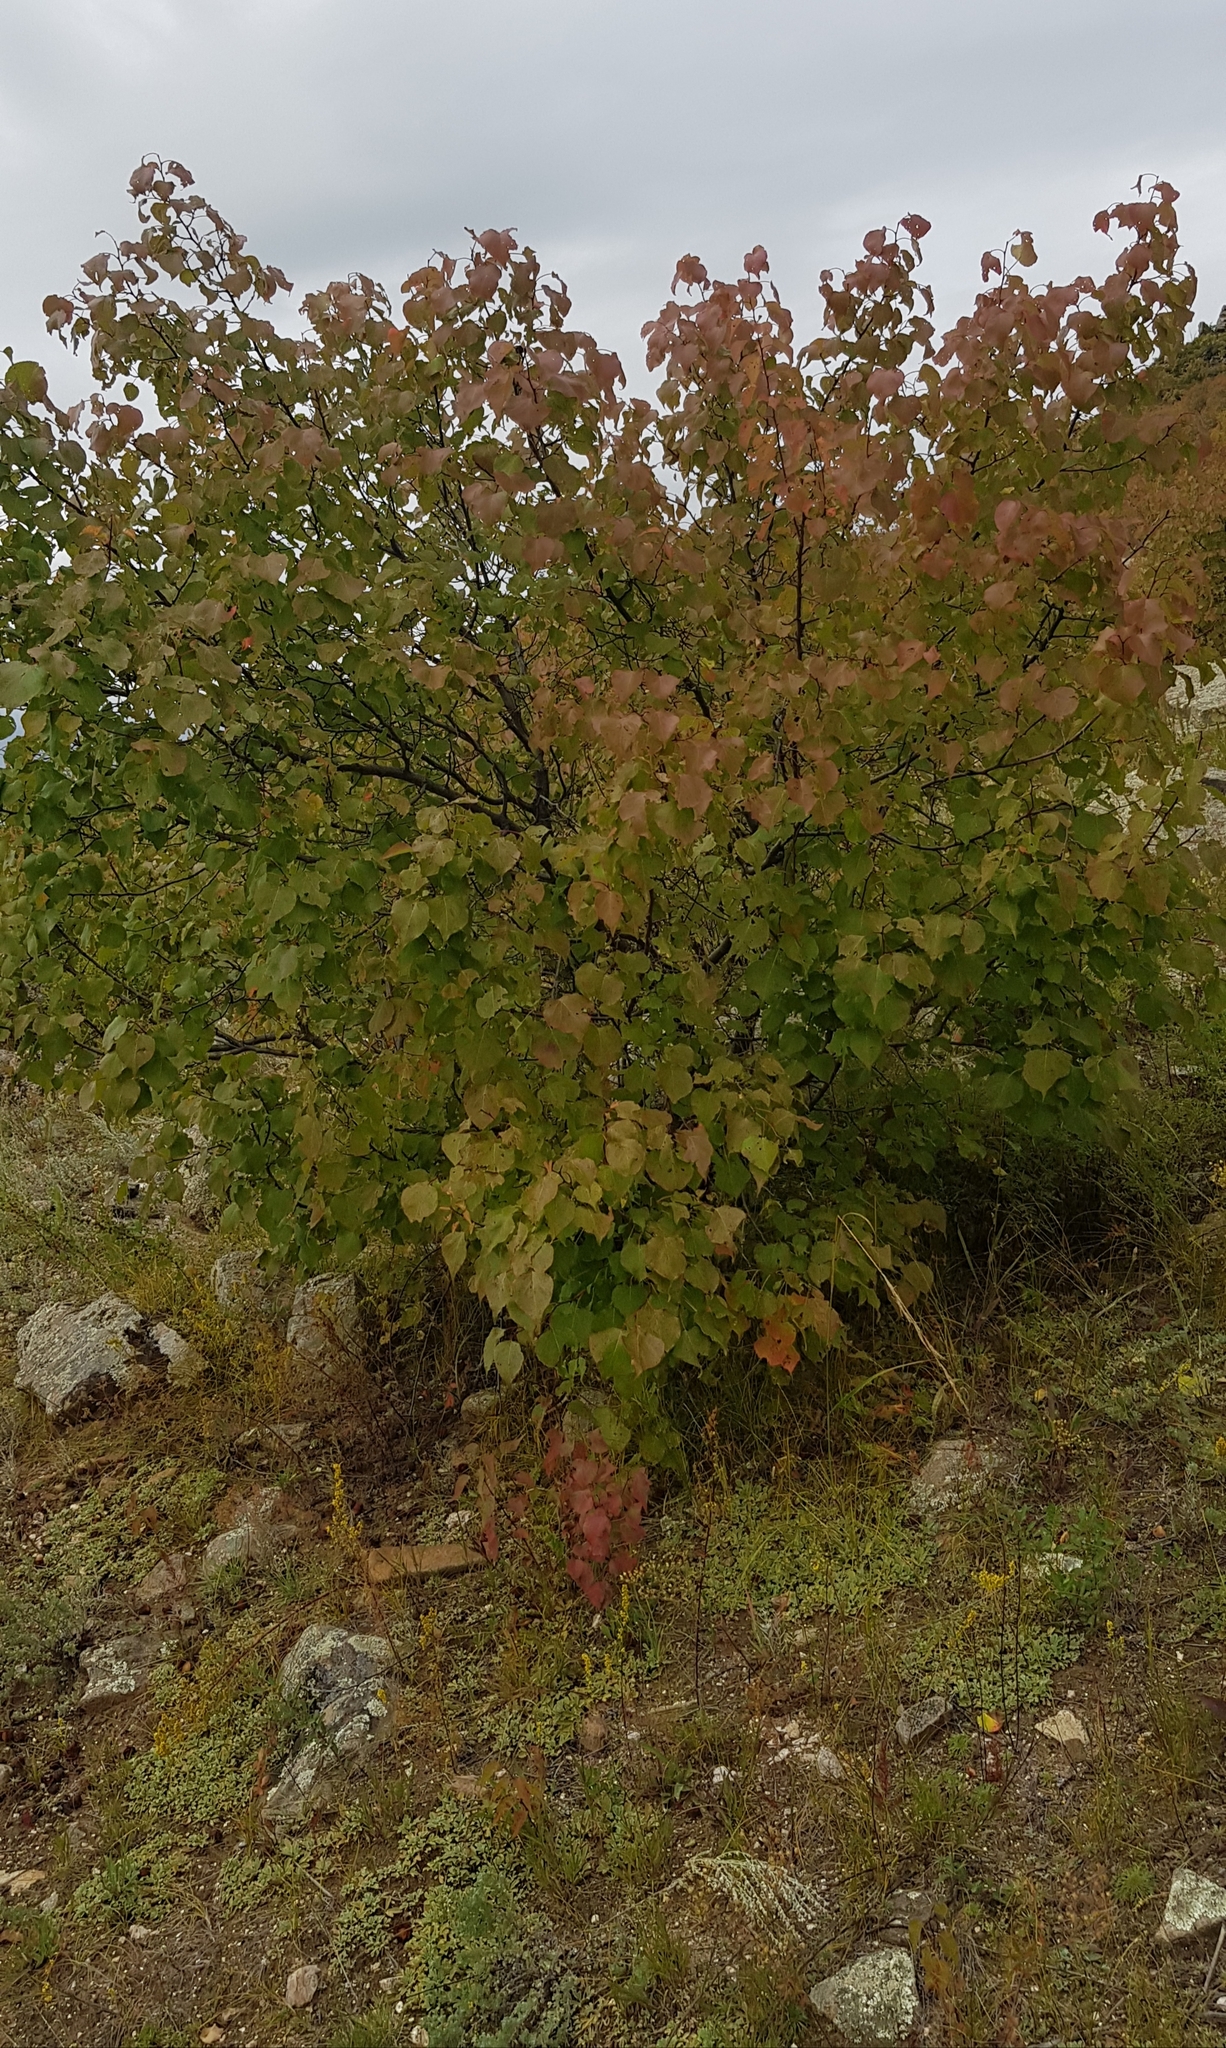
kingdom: Plantae
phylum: Tracheophyta
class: Magnoliopsida
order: Rosales
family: Rosaceae
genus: Prunus
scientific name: Prunus sibirica
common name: Siberian apricot
